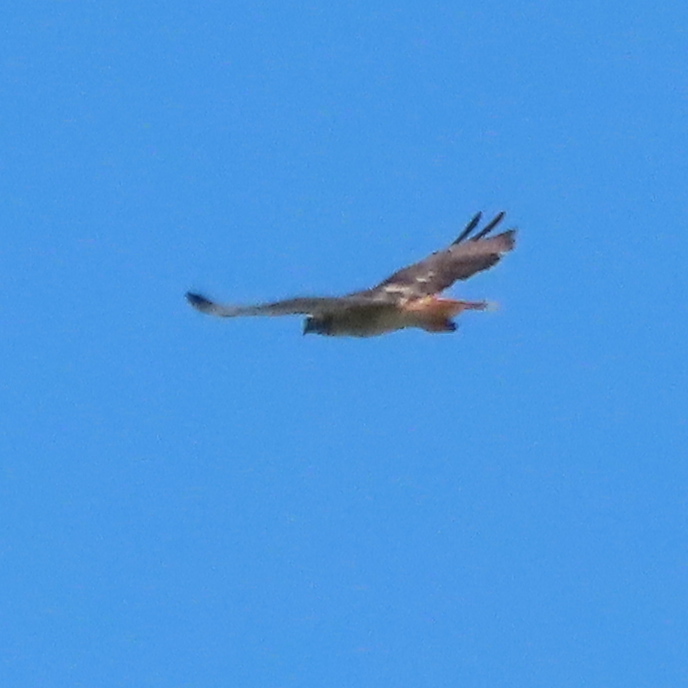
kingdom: Animalia
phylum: Chordata
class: Aves
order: Accipitriformes
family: Accipitridae
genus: Buteo
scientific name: Buteo jamaicensis
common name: Red-tailed hawk
